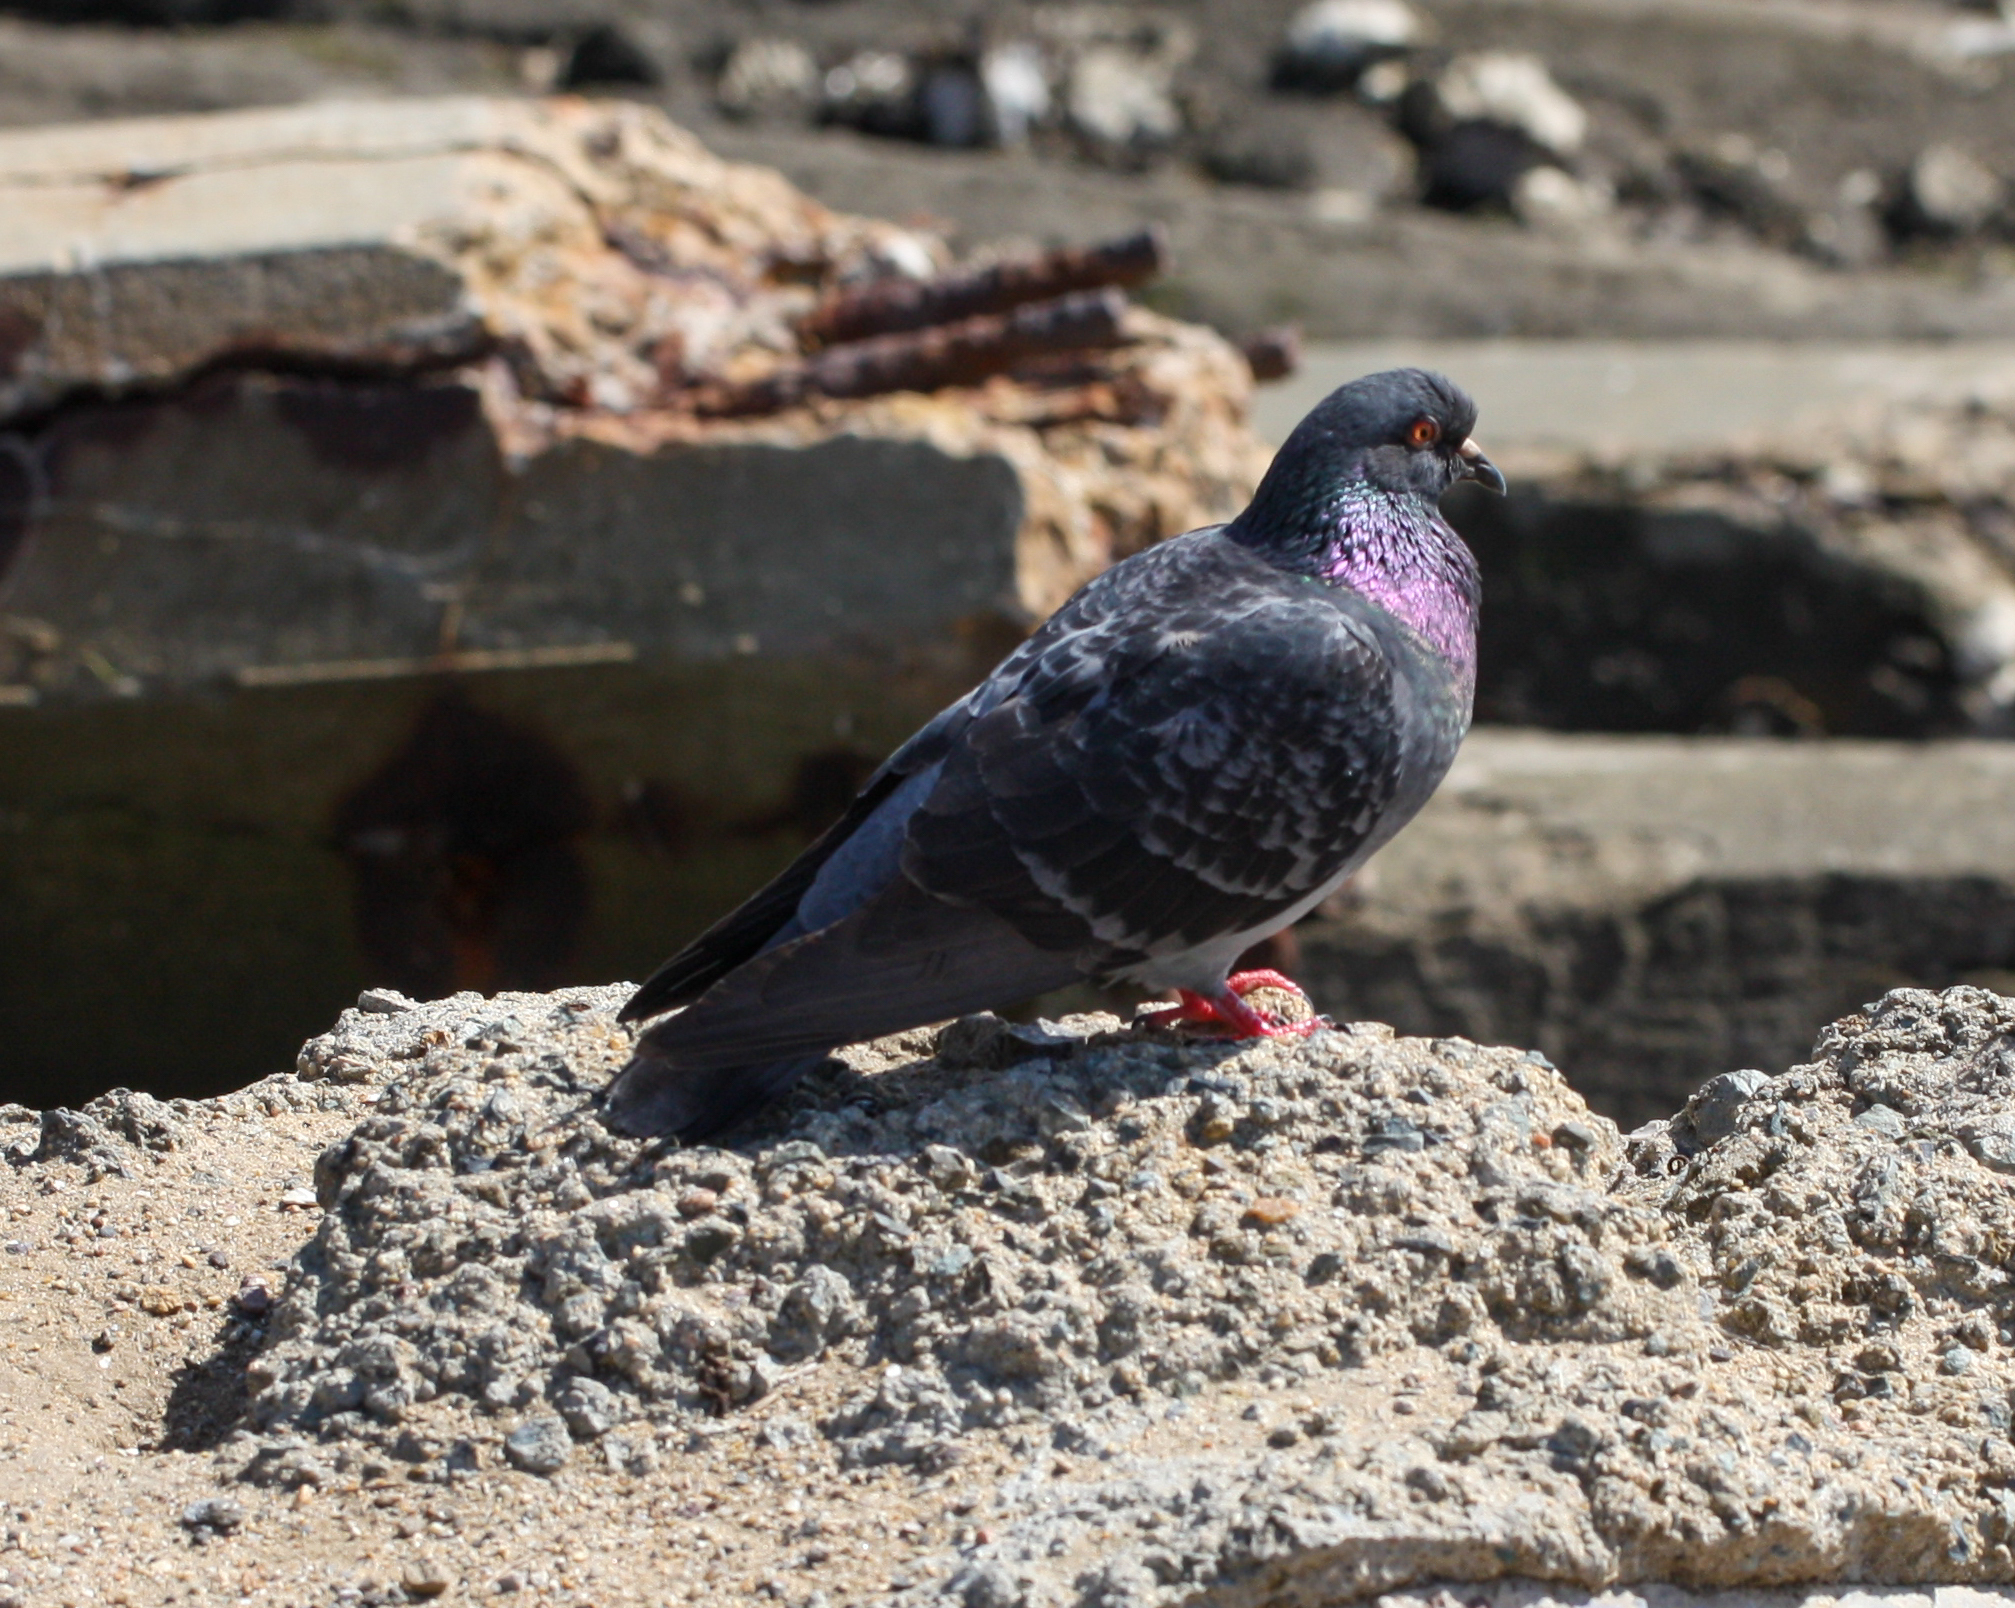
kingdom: Animalia
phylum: Chordata
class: Aves
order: Columbiformes
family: Columbidae
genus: Columba
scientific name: Columba livia
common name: Rock pigeon
